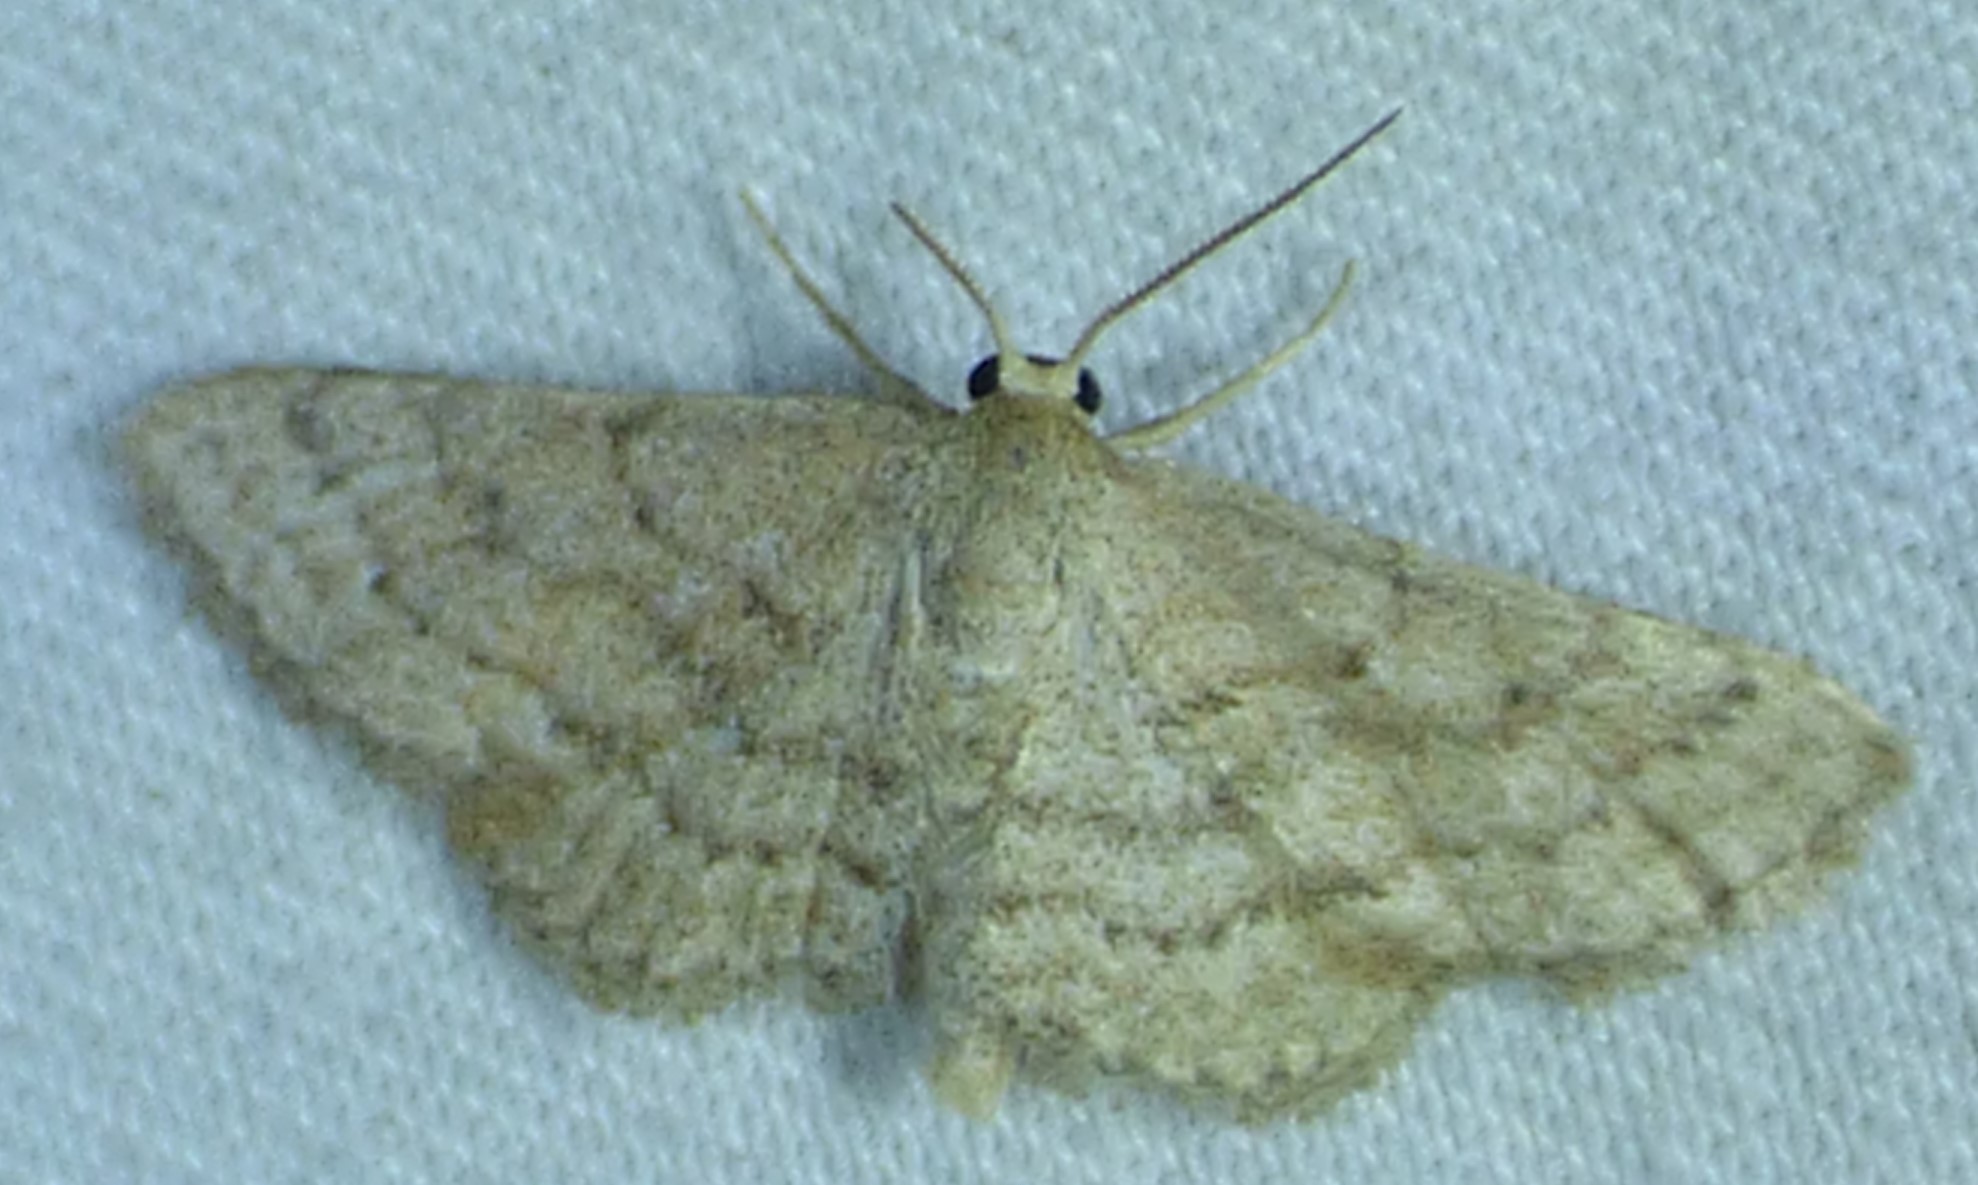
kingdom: Animalia
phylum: Arthropoda
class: Insecta
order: Lepidoptera
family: Geometridae
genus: Lobocleta
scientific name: Lobocleta ossularia
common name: Drab brown wave
